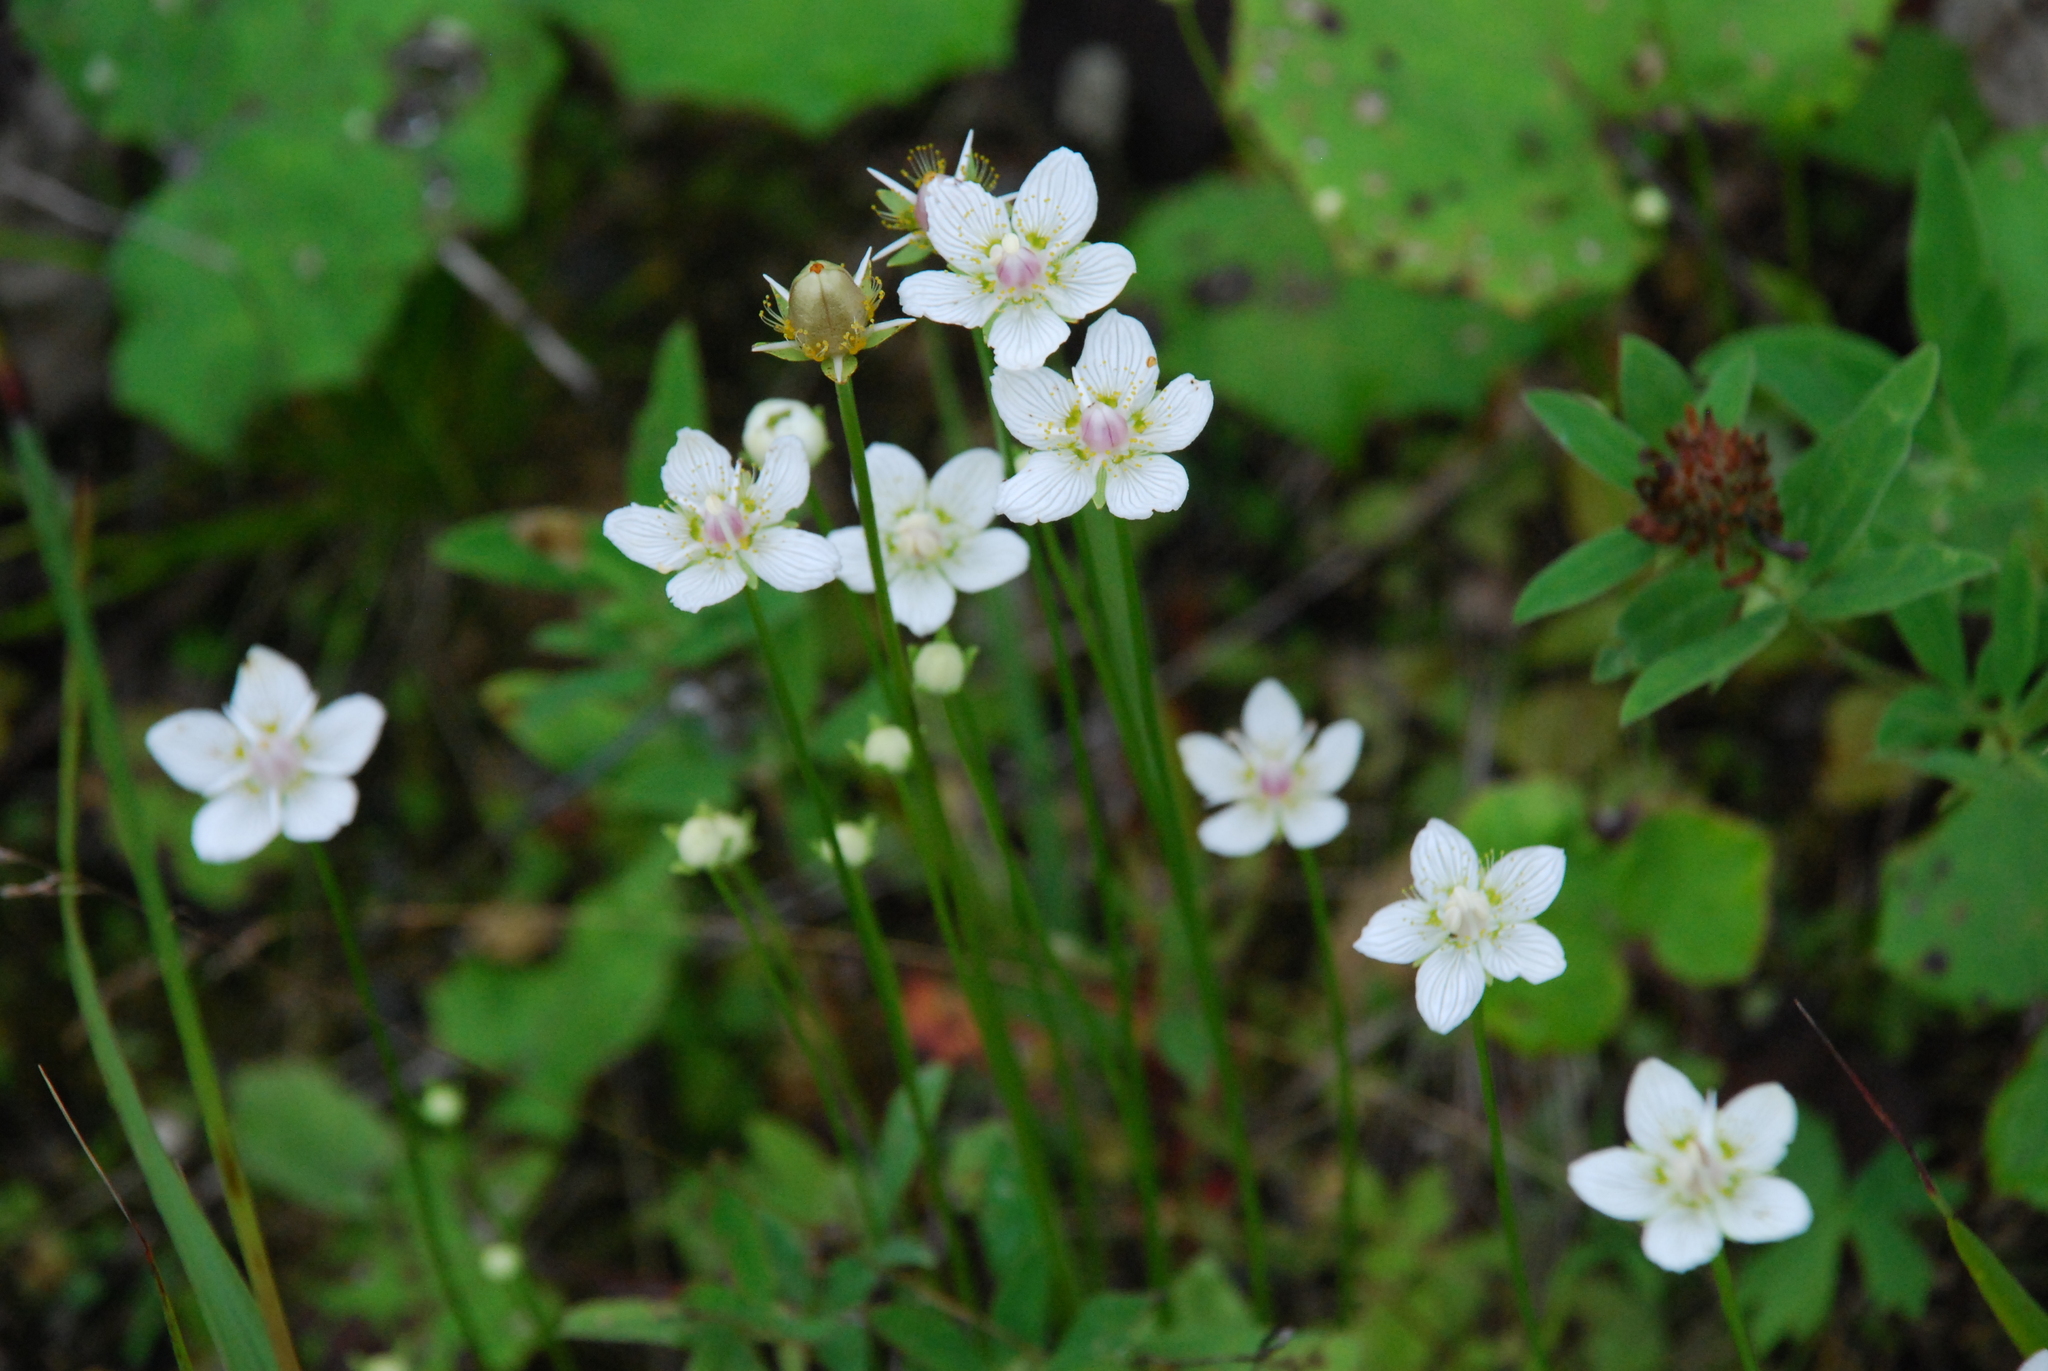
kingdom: Plantae
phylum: Tracheophyta
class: Magnoliopsida
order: Celastrales
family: Parnassiaceae
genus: Parnassia
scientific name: Parnassia palustris
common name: Grass-of-parnassus
